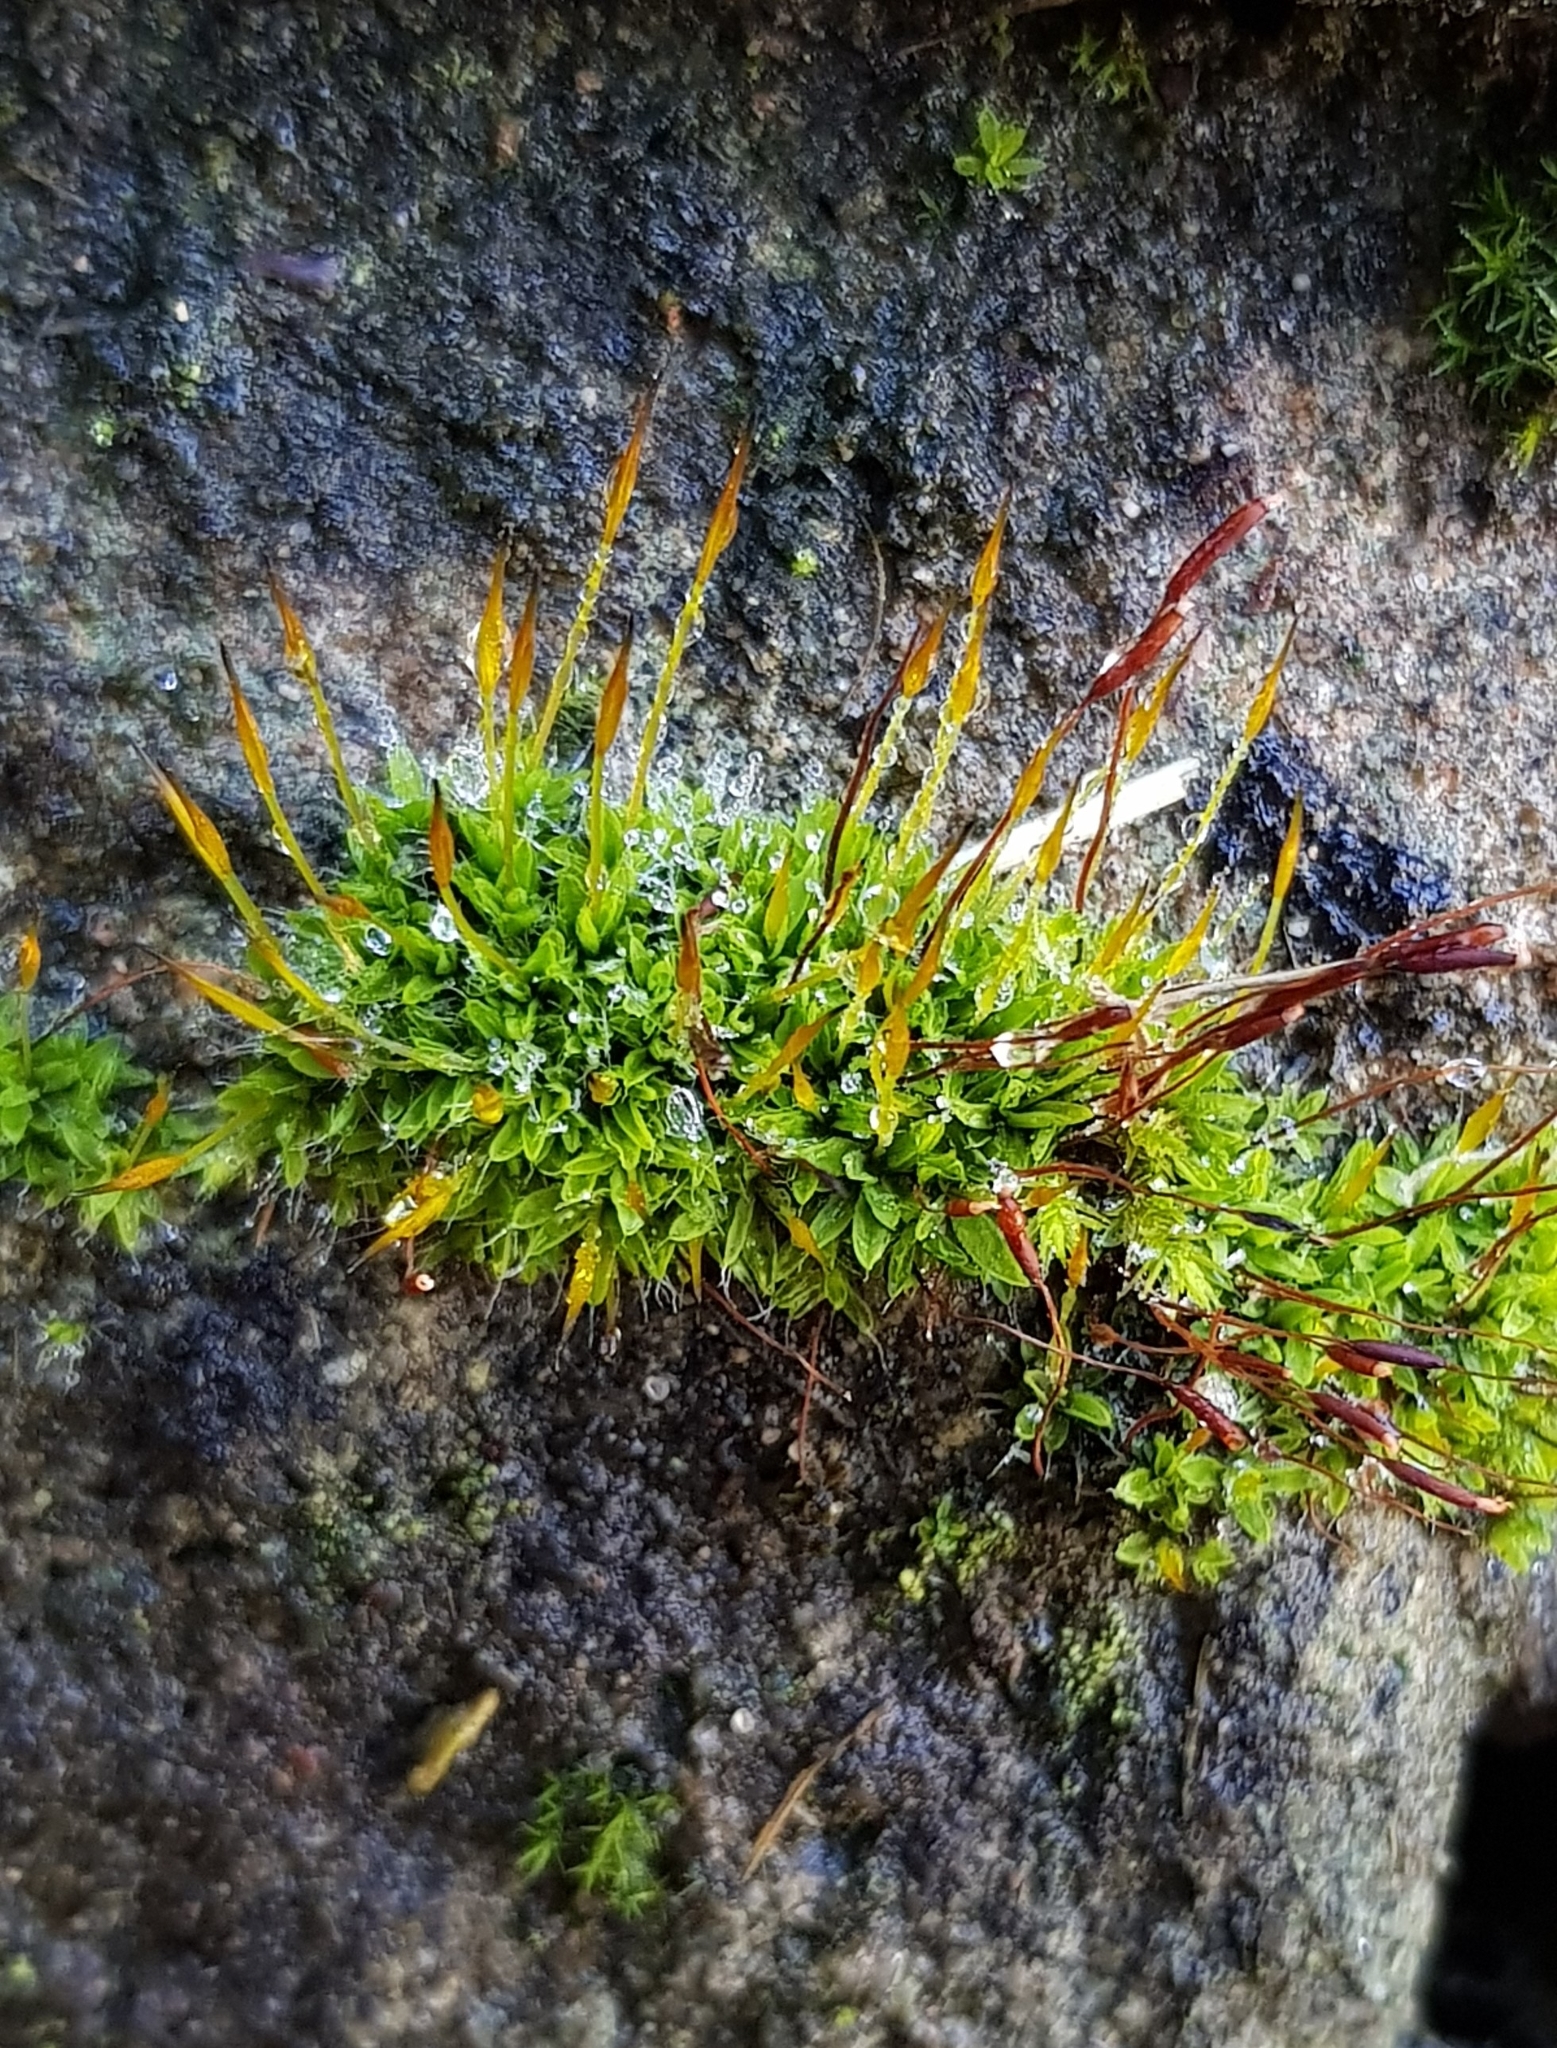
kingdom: Plantae
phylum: Bryophyta
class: Bryopsida
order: Pottiales
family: Pottiaceae
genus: Tortula
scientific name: Tortula muralis
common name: Wall screw-moss
